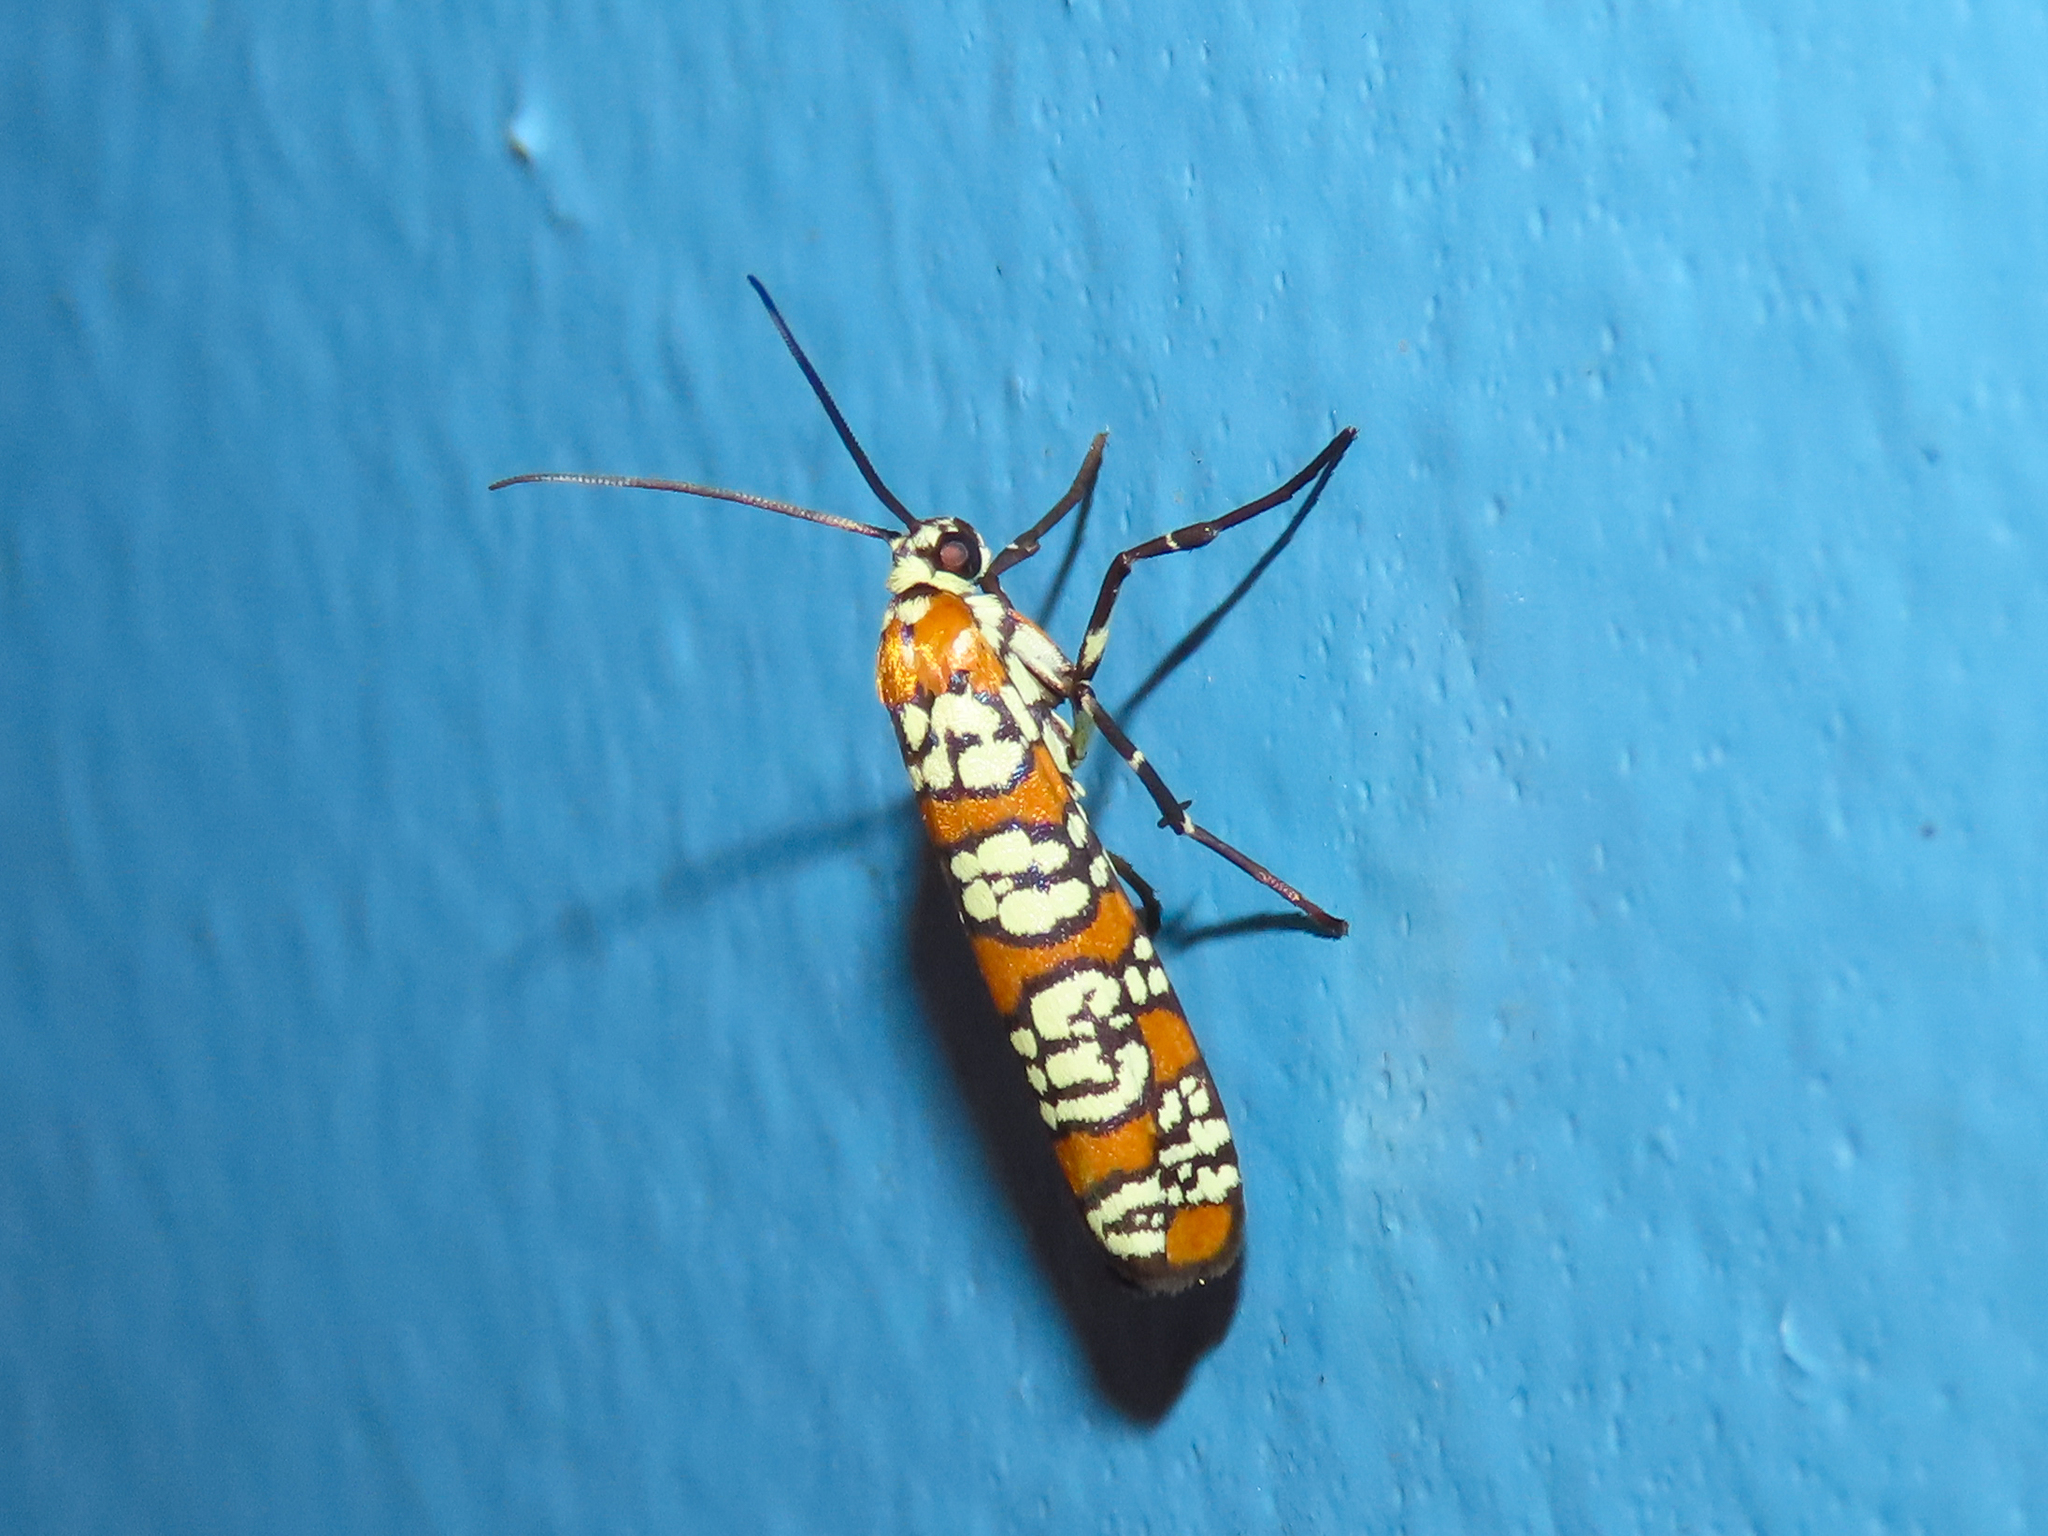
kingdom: Animalia
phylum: Arthropoda
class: Insecta
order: Lepidoptera
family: Attevidae
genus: Atteva
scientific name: Atteva punctella
